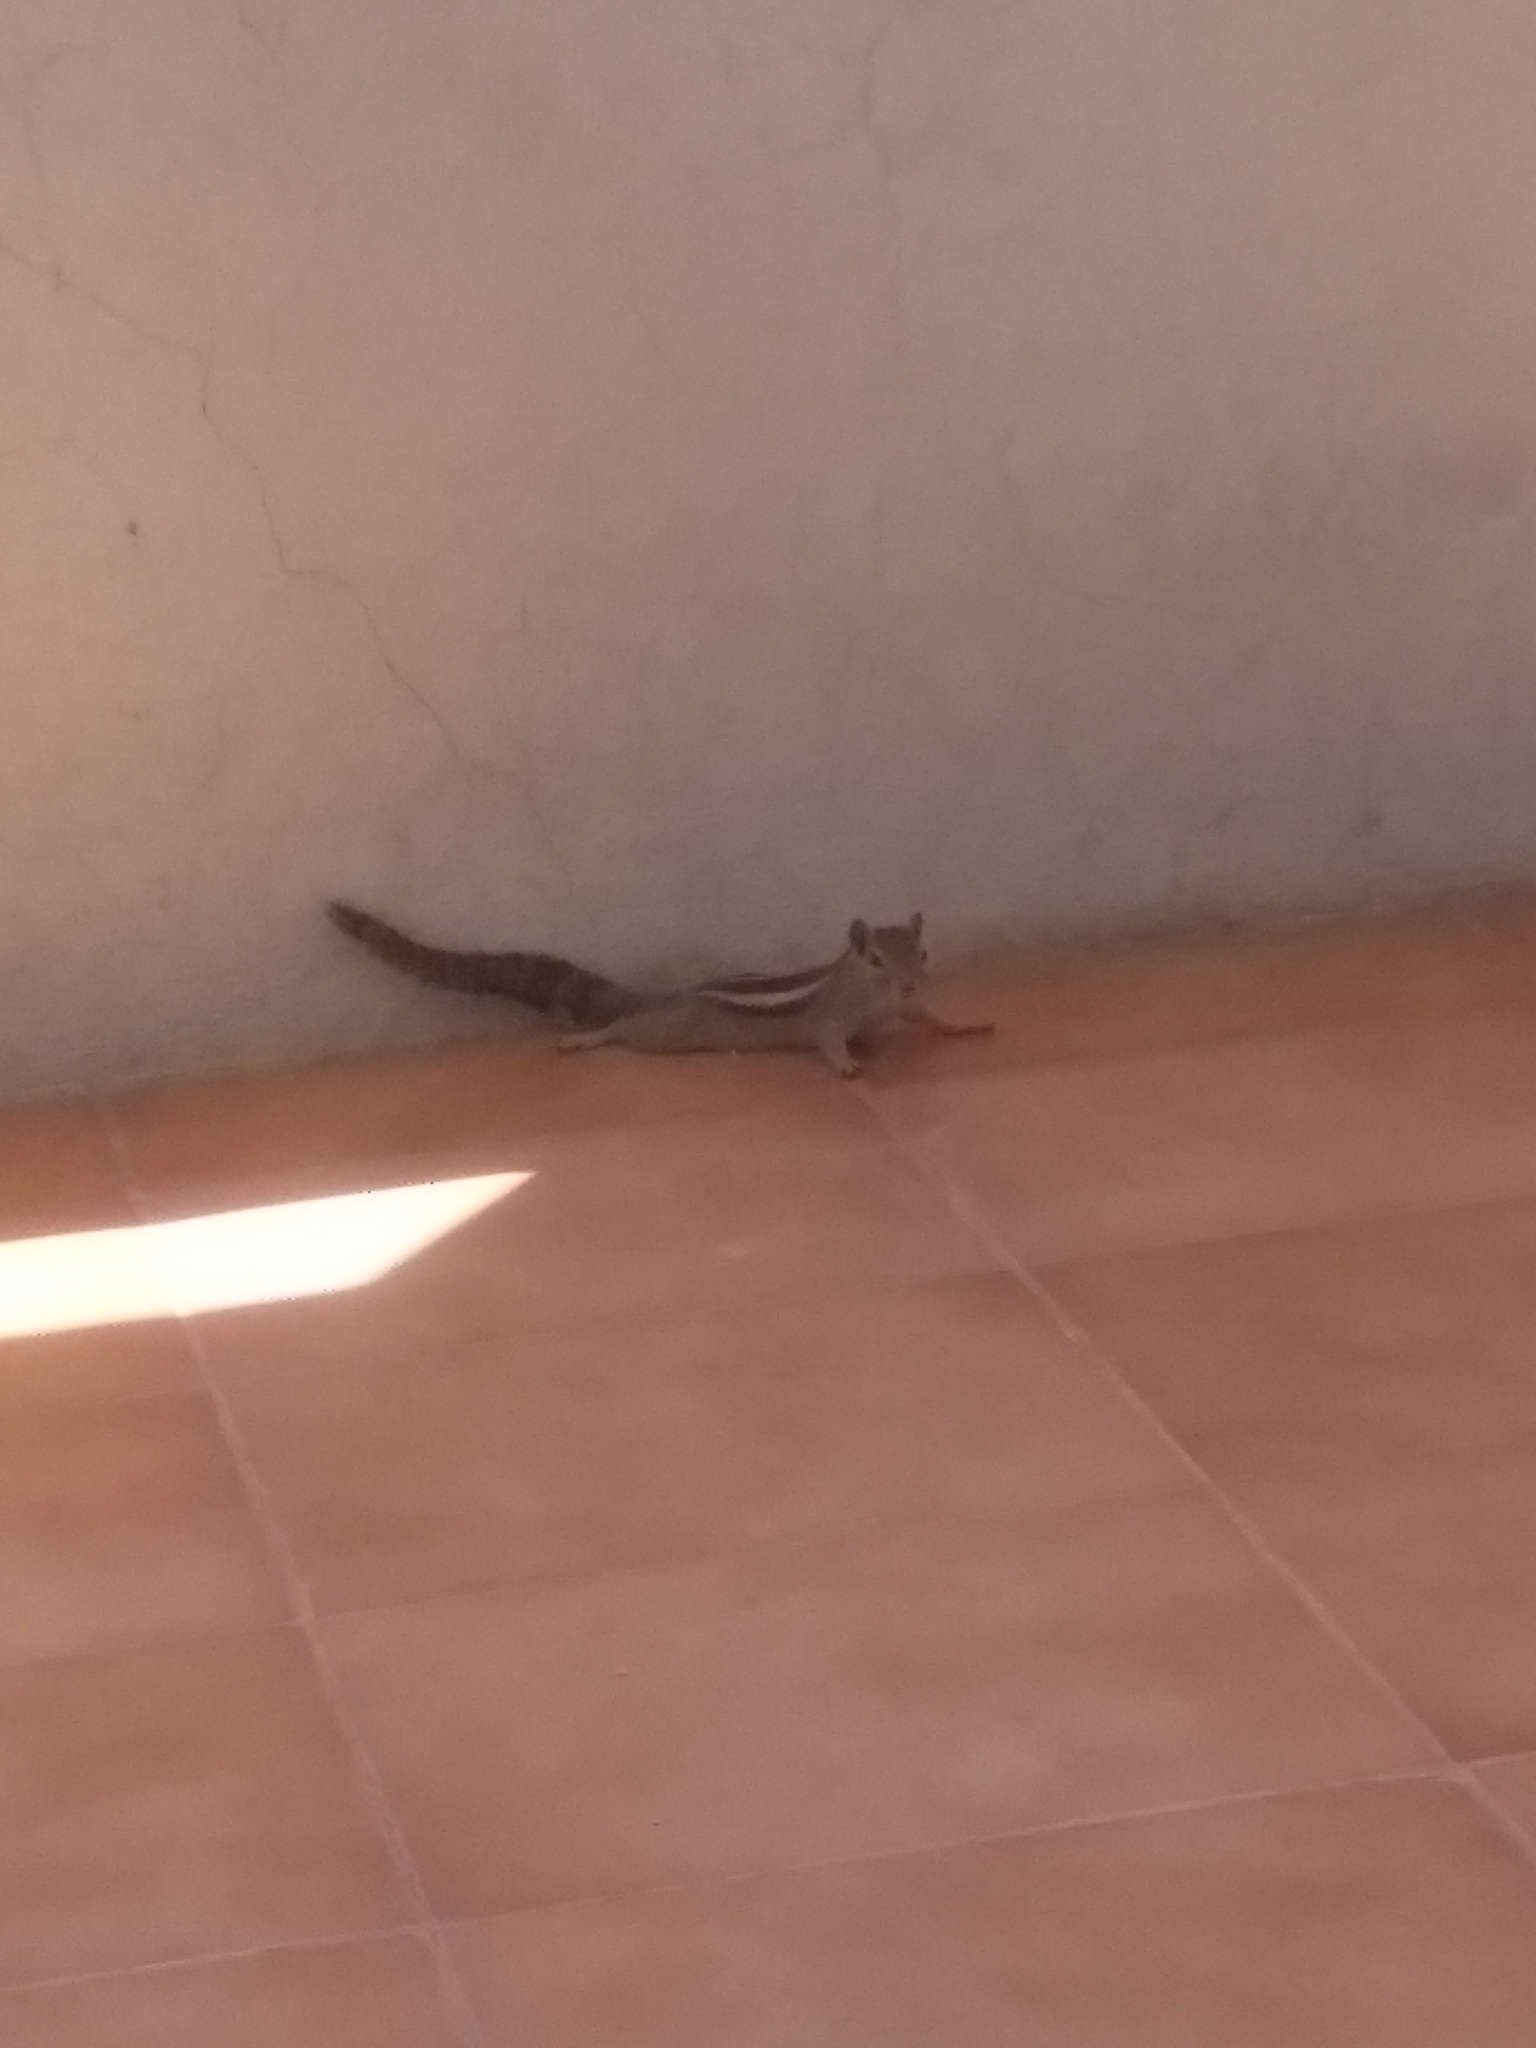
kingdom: Animalia
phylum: Chordata
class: Mammalia
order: Rodentia
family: Sciuridae
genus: Funambulus
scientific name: Funambulus palmarum
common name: Indian palm squirrel
